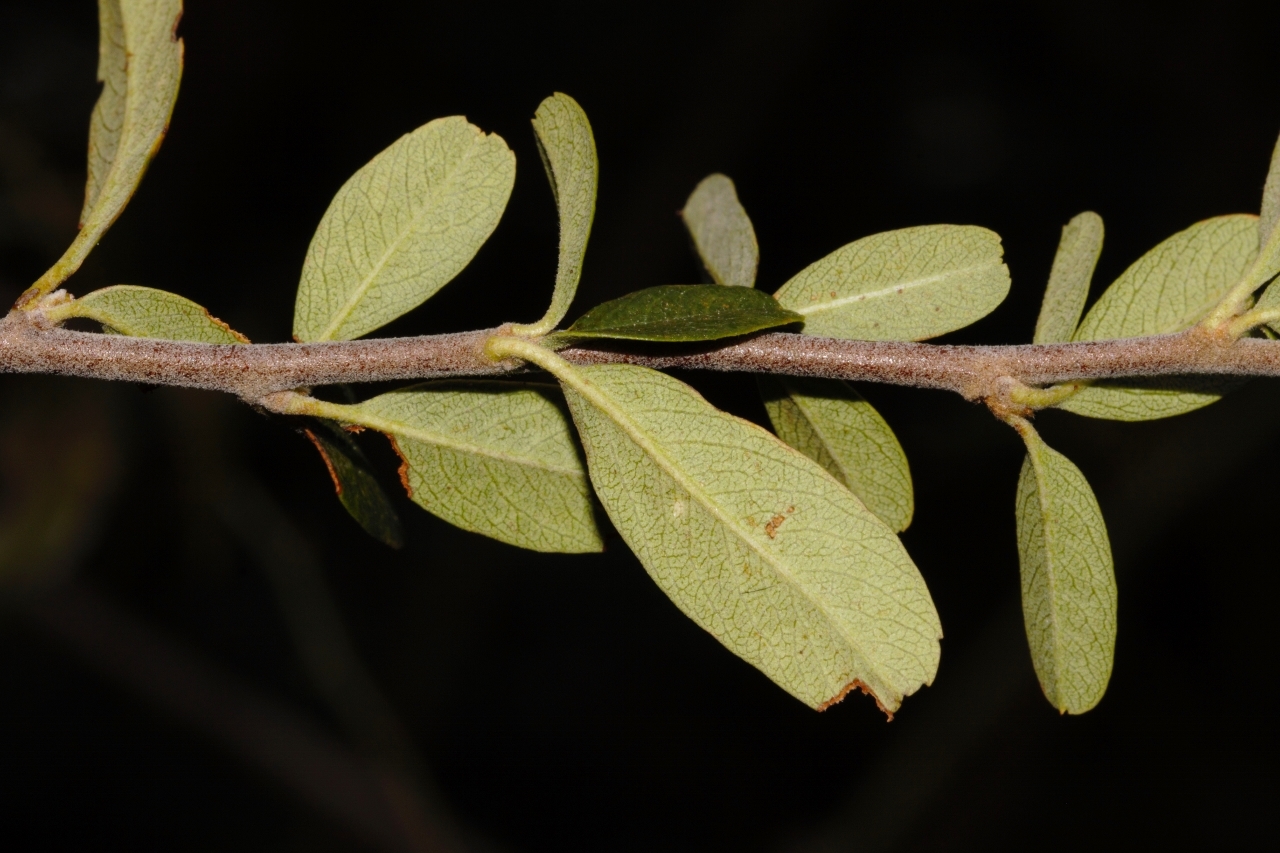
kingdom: Plantae
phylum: Tracheophyta
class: Magnoliopsida
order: Rosales
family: Rosaceae
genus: Pyracantha
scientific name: Pyracantha angustifolia
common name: Narrowleaf firethorn
